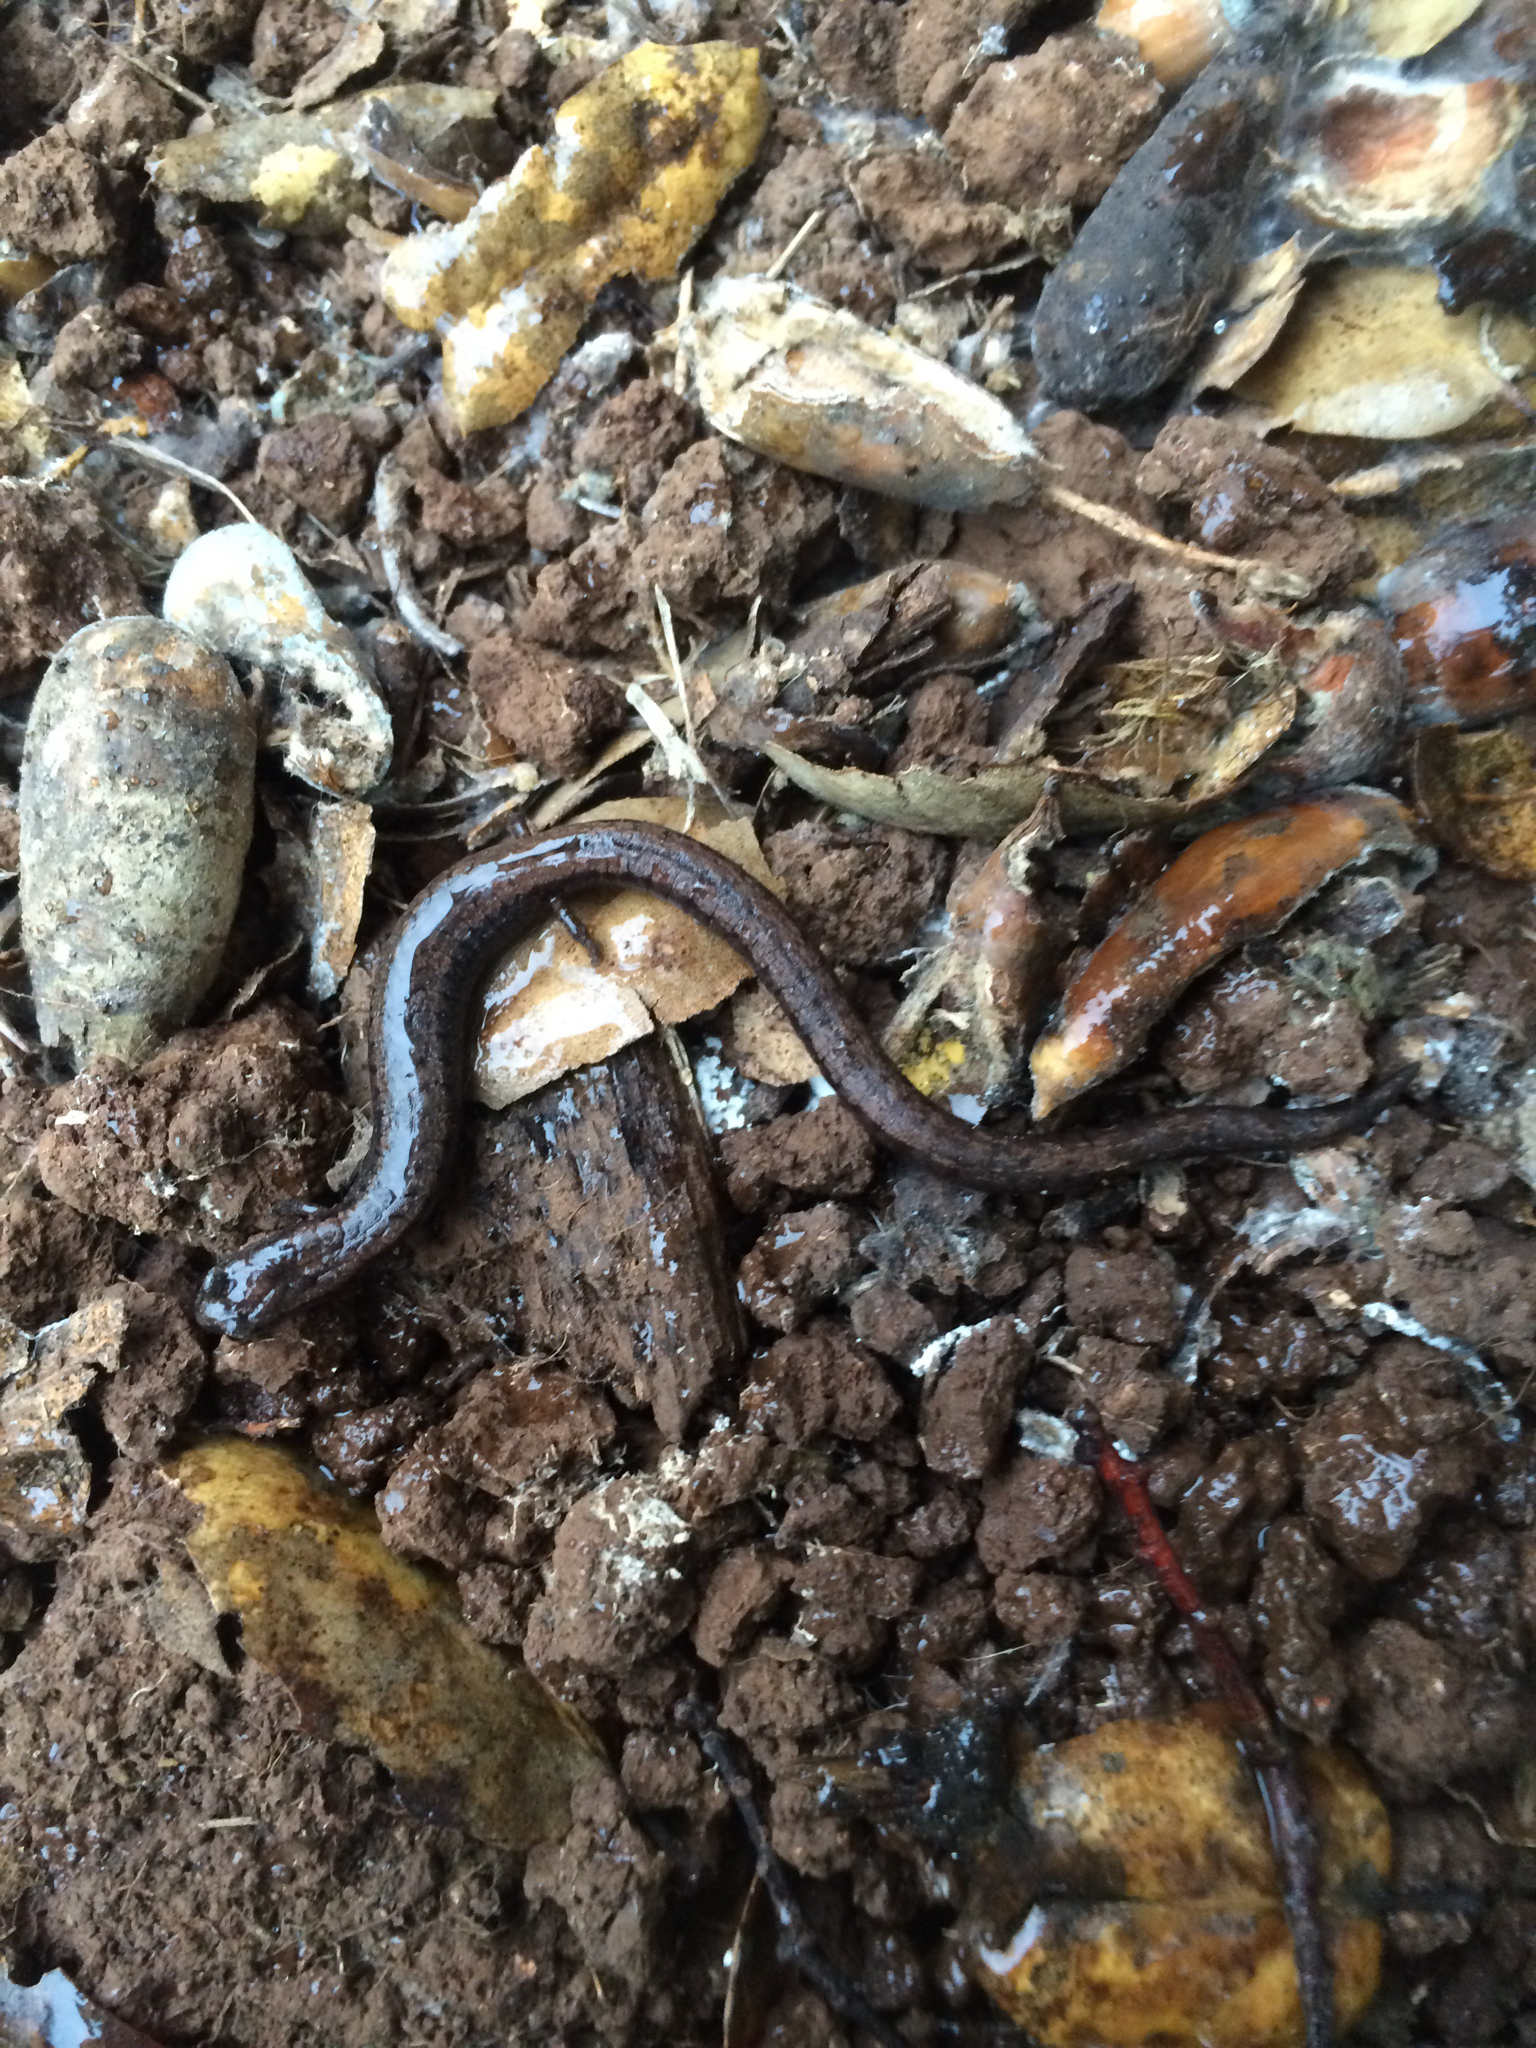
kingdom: Animalia
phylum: Chordata
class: Amphibia
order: Caudata
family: Plethodontidae
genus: Batrachoseps
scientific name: Batrachoseps attenuatus
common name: California slender salamander
